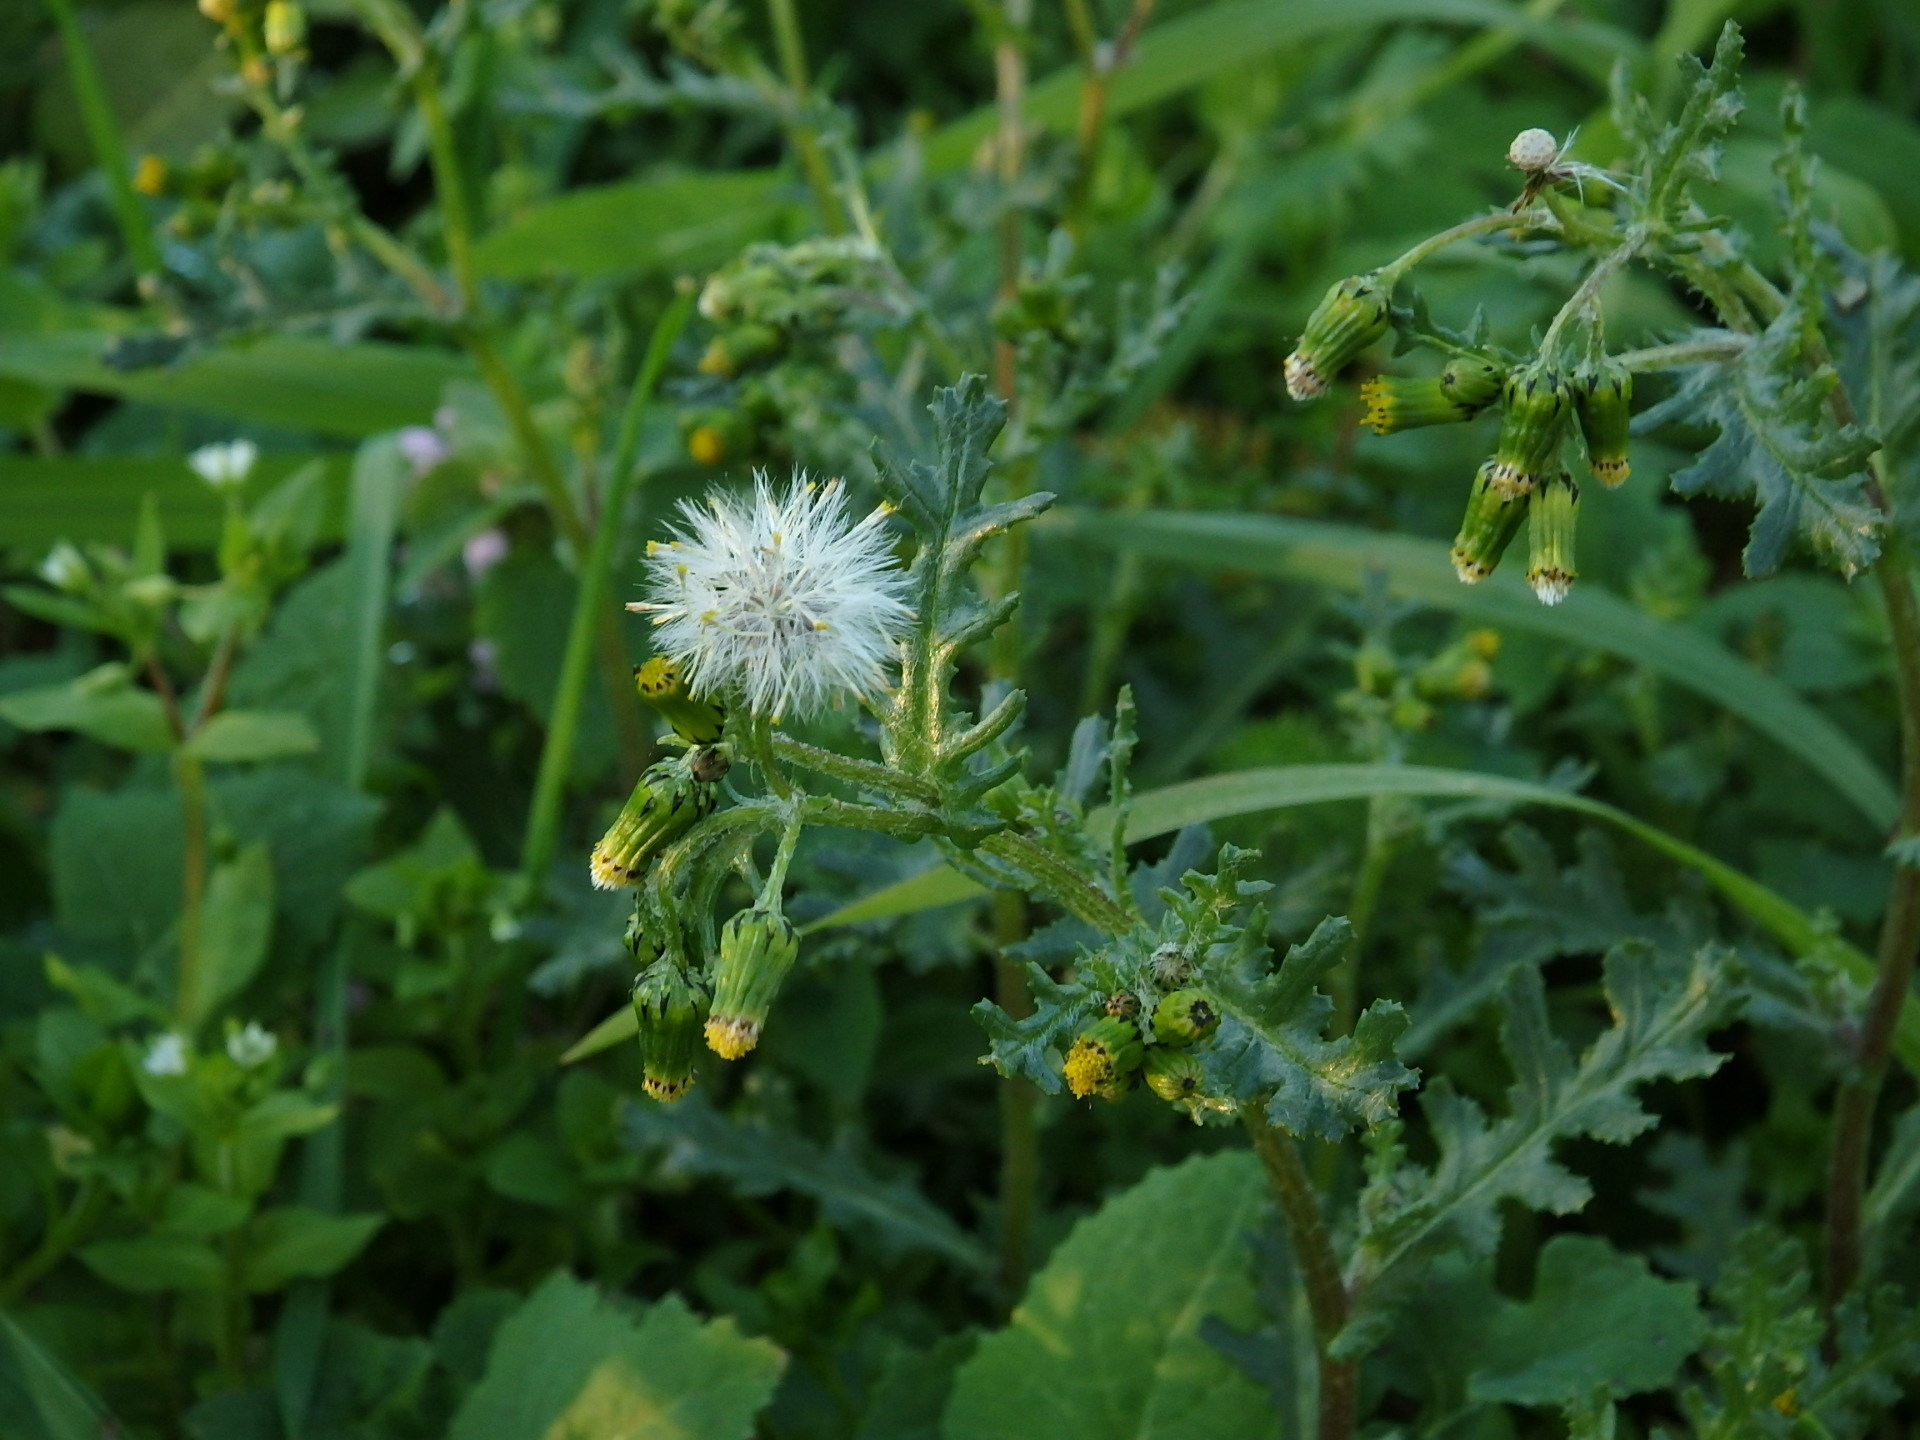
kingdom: Plantae
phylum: Tracheophyta
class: Magnoliopsida
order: Asterales
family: Asteraceae
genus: Senecio
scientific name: Senecio vulgaris
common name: Old-man-in-the-spring
